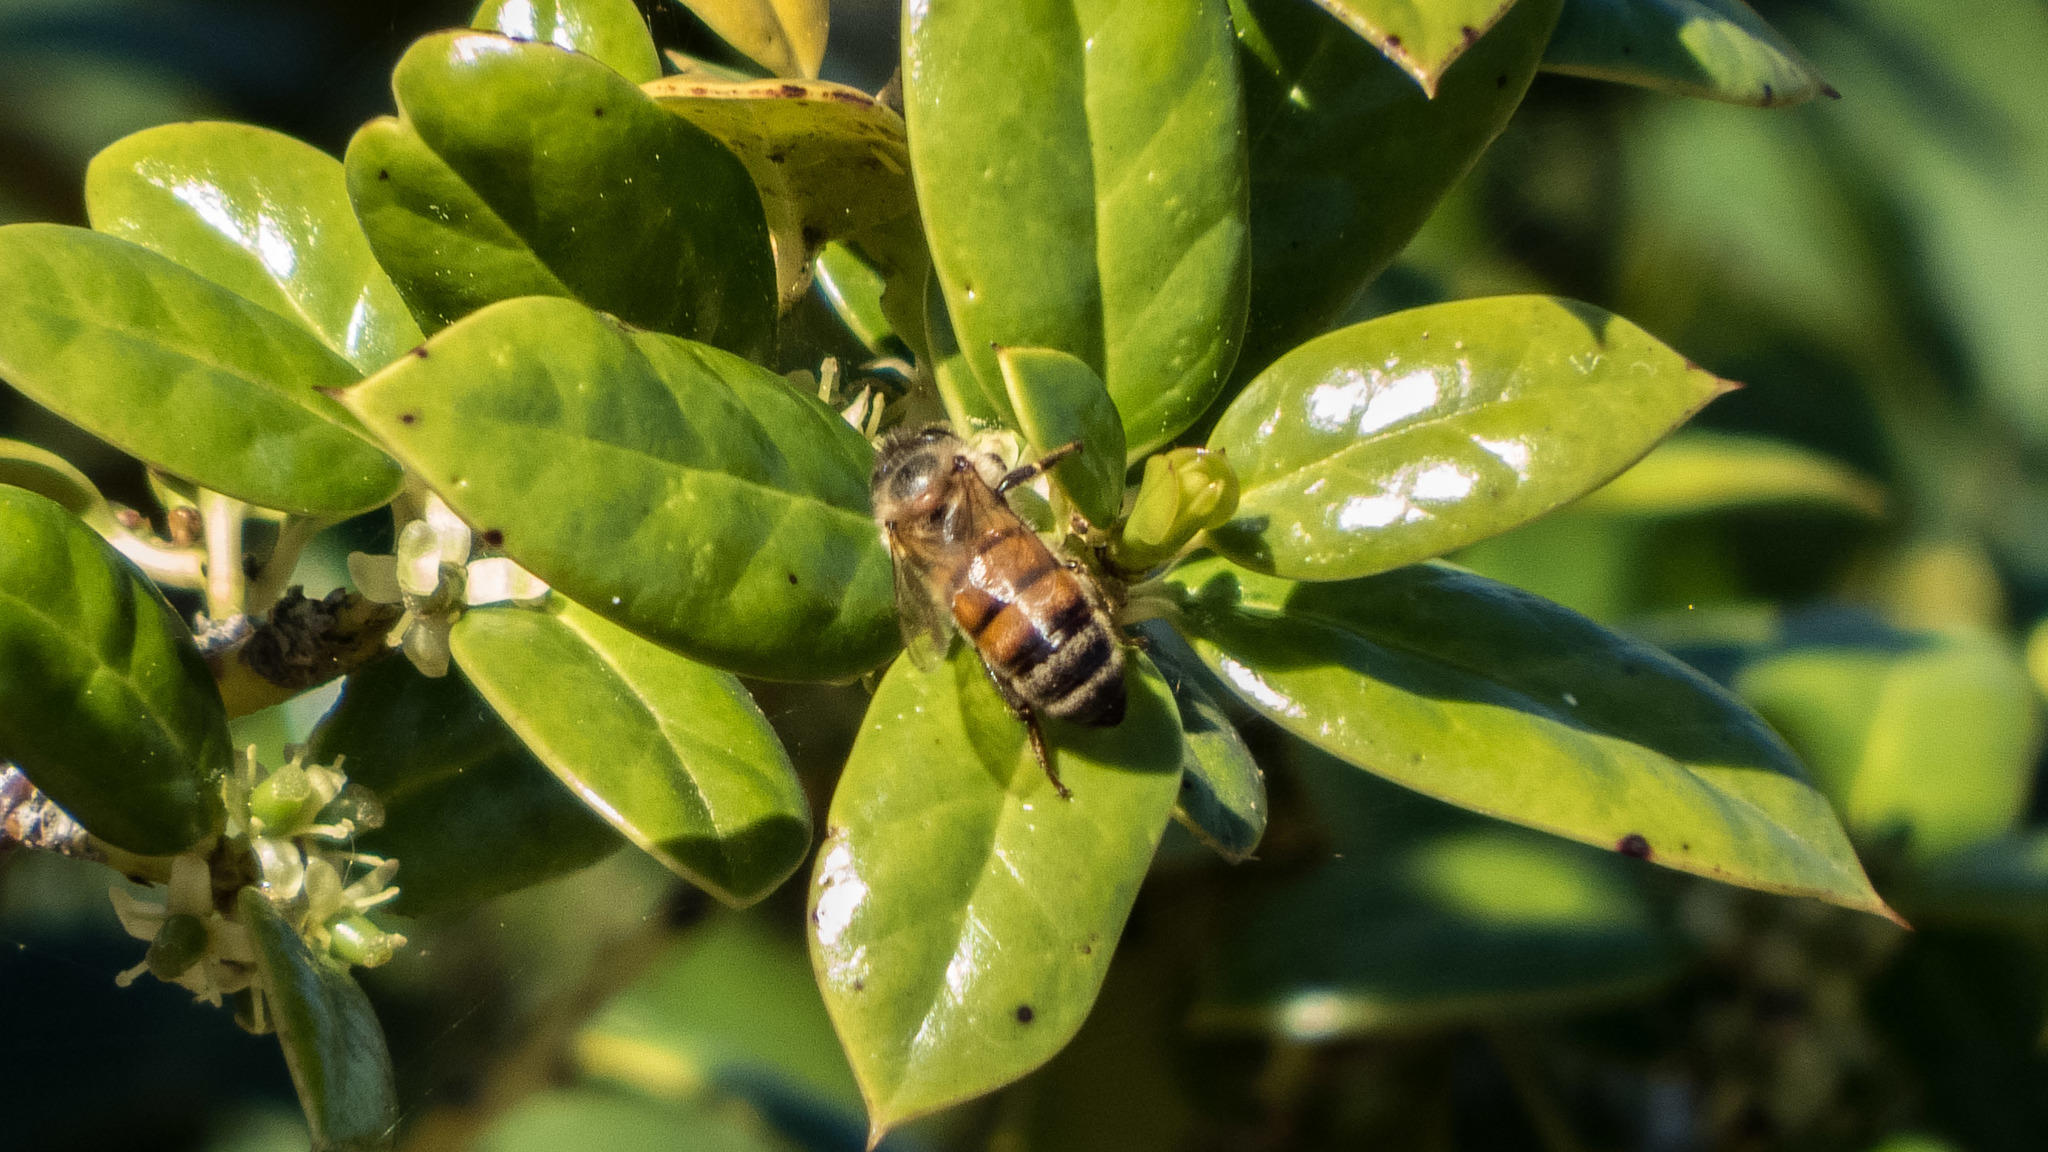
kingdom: Animalia
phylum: Arthropoda
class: Insecta
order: Hymenoptera
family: Apidae
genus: Apis
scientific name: Apis mellifera
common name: Honey bee
